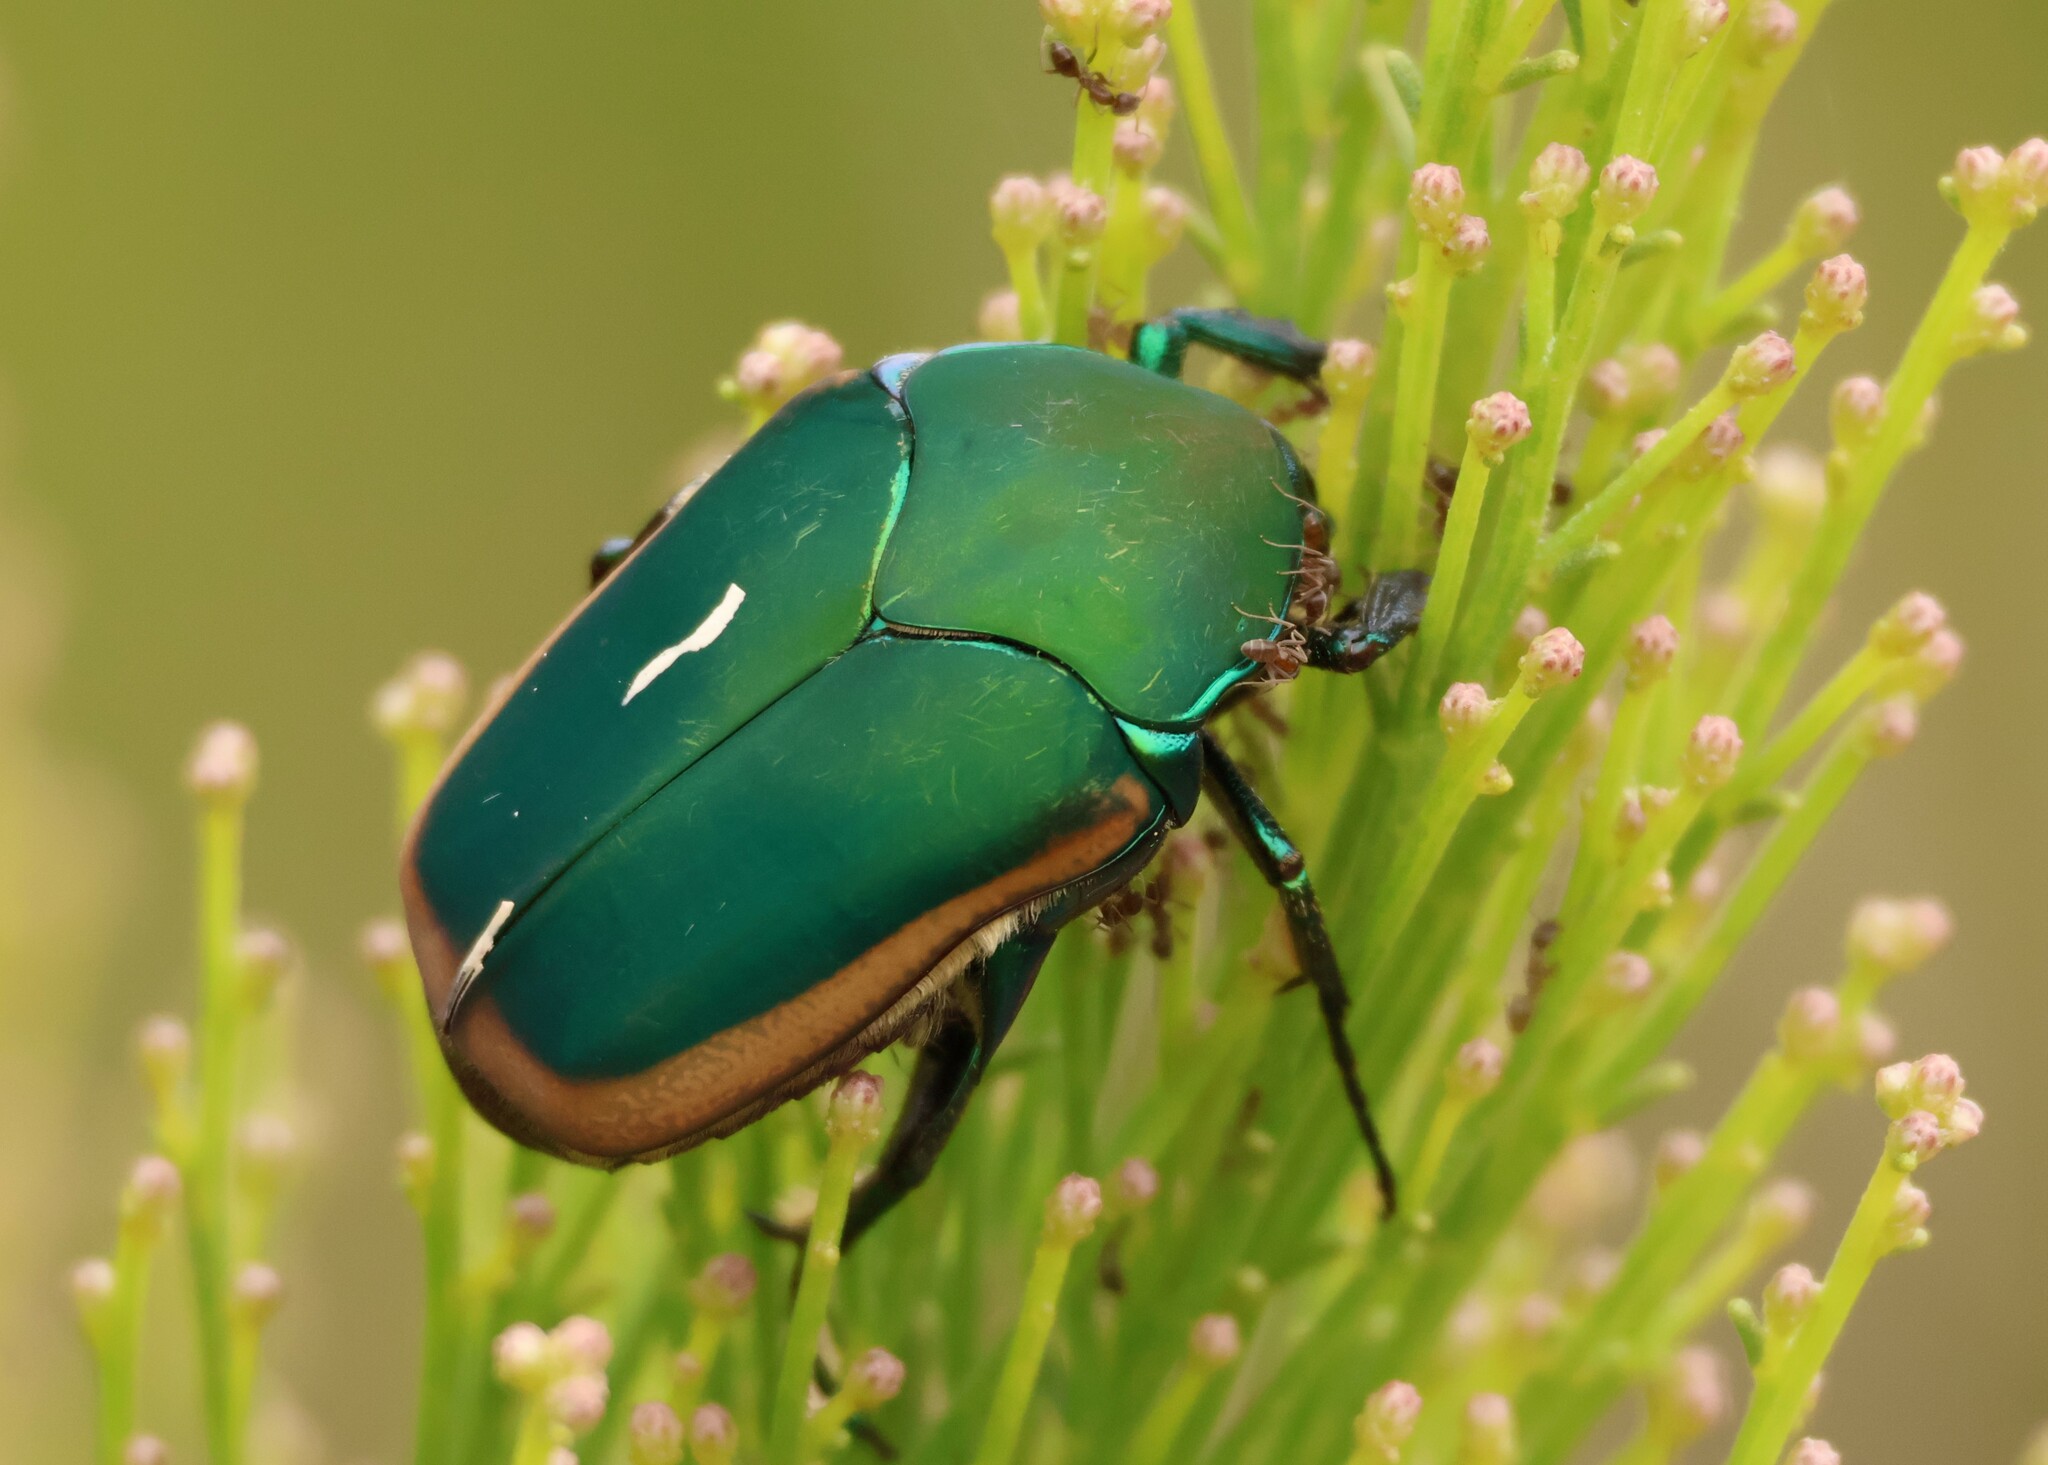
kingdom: Animalia
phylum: Arthropoda
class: Insecta
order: Coleoptera
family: Scarabaeidae
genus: Cotinis
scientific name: Cotinis mutabilis
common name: Figeater beetle
